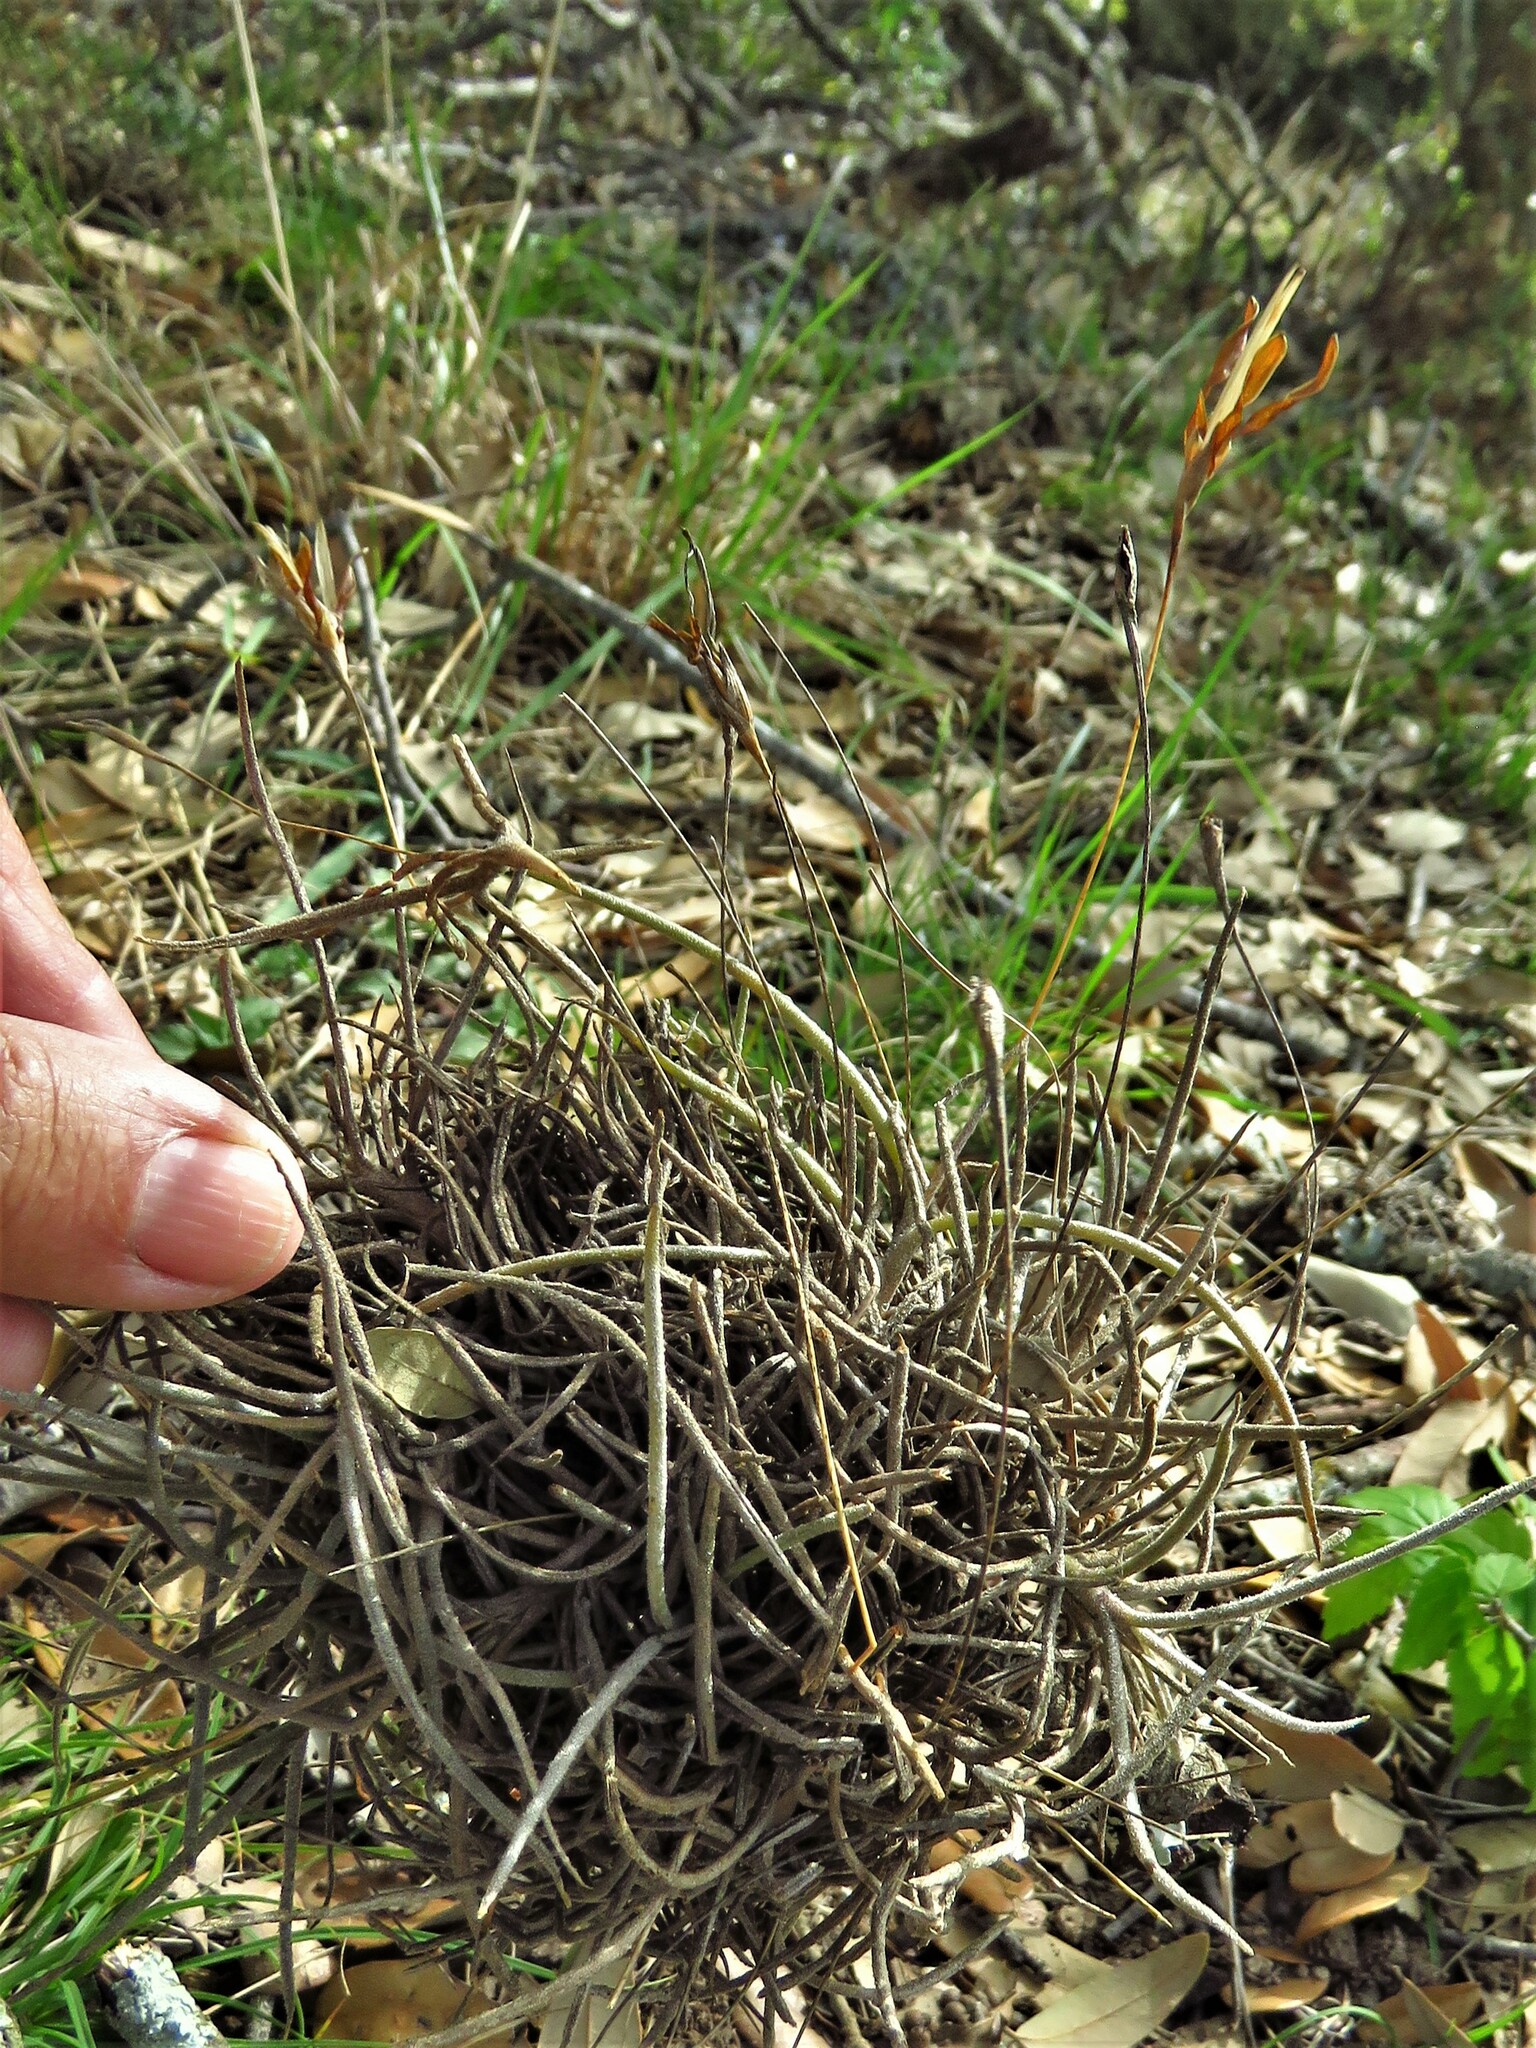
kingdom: Plantae
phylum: Tracheophyta
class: Liliopsida
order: Poales
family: Bromeliaceae
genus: Tillandsia
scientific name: Tillandsia recurvata
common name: Small ballmoss
